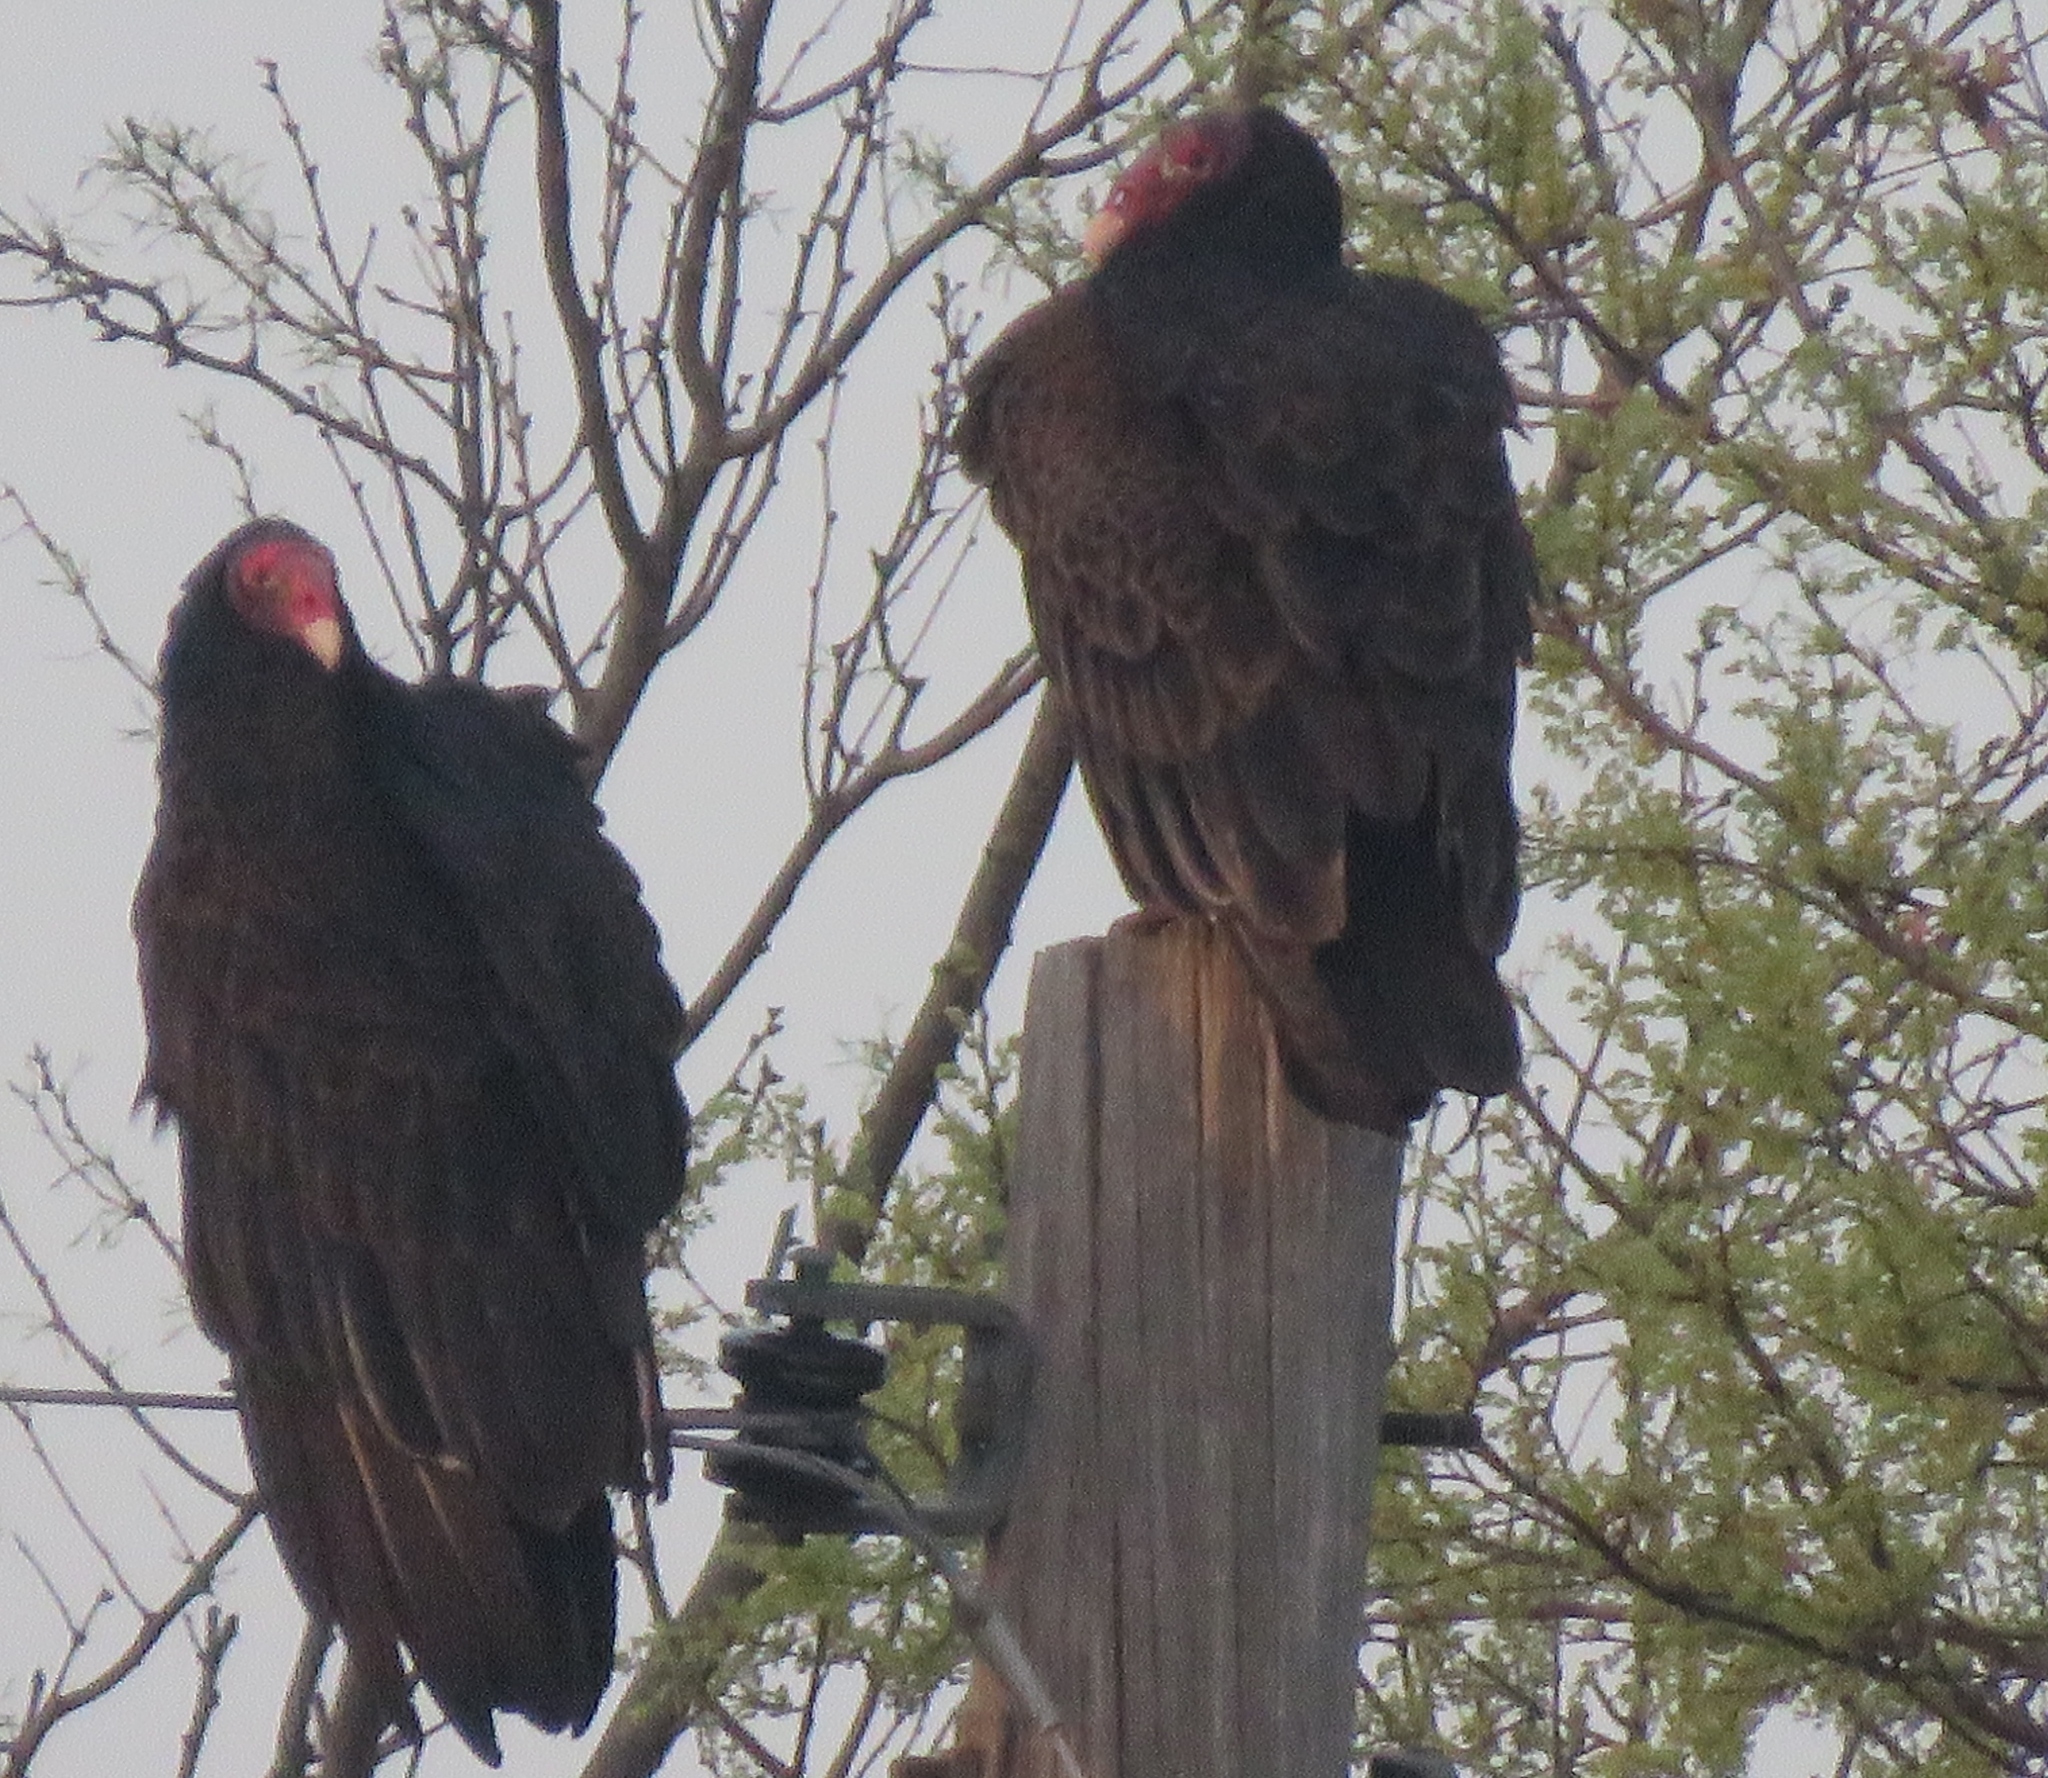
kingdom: Animalia
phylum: Chordata
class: Aves
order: Accipitriformes
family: Cathartidae
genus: Cathartes
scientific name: Cathartes aura
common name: Turkey vulture
